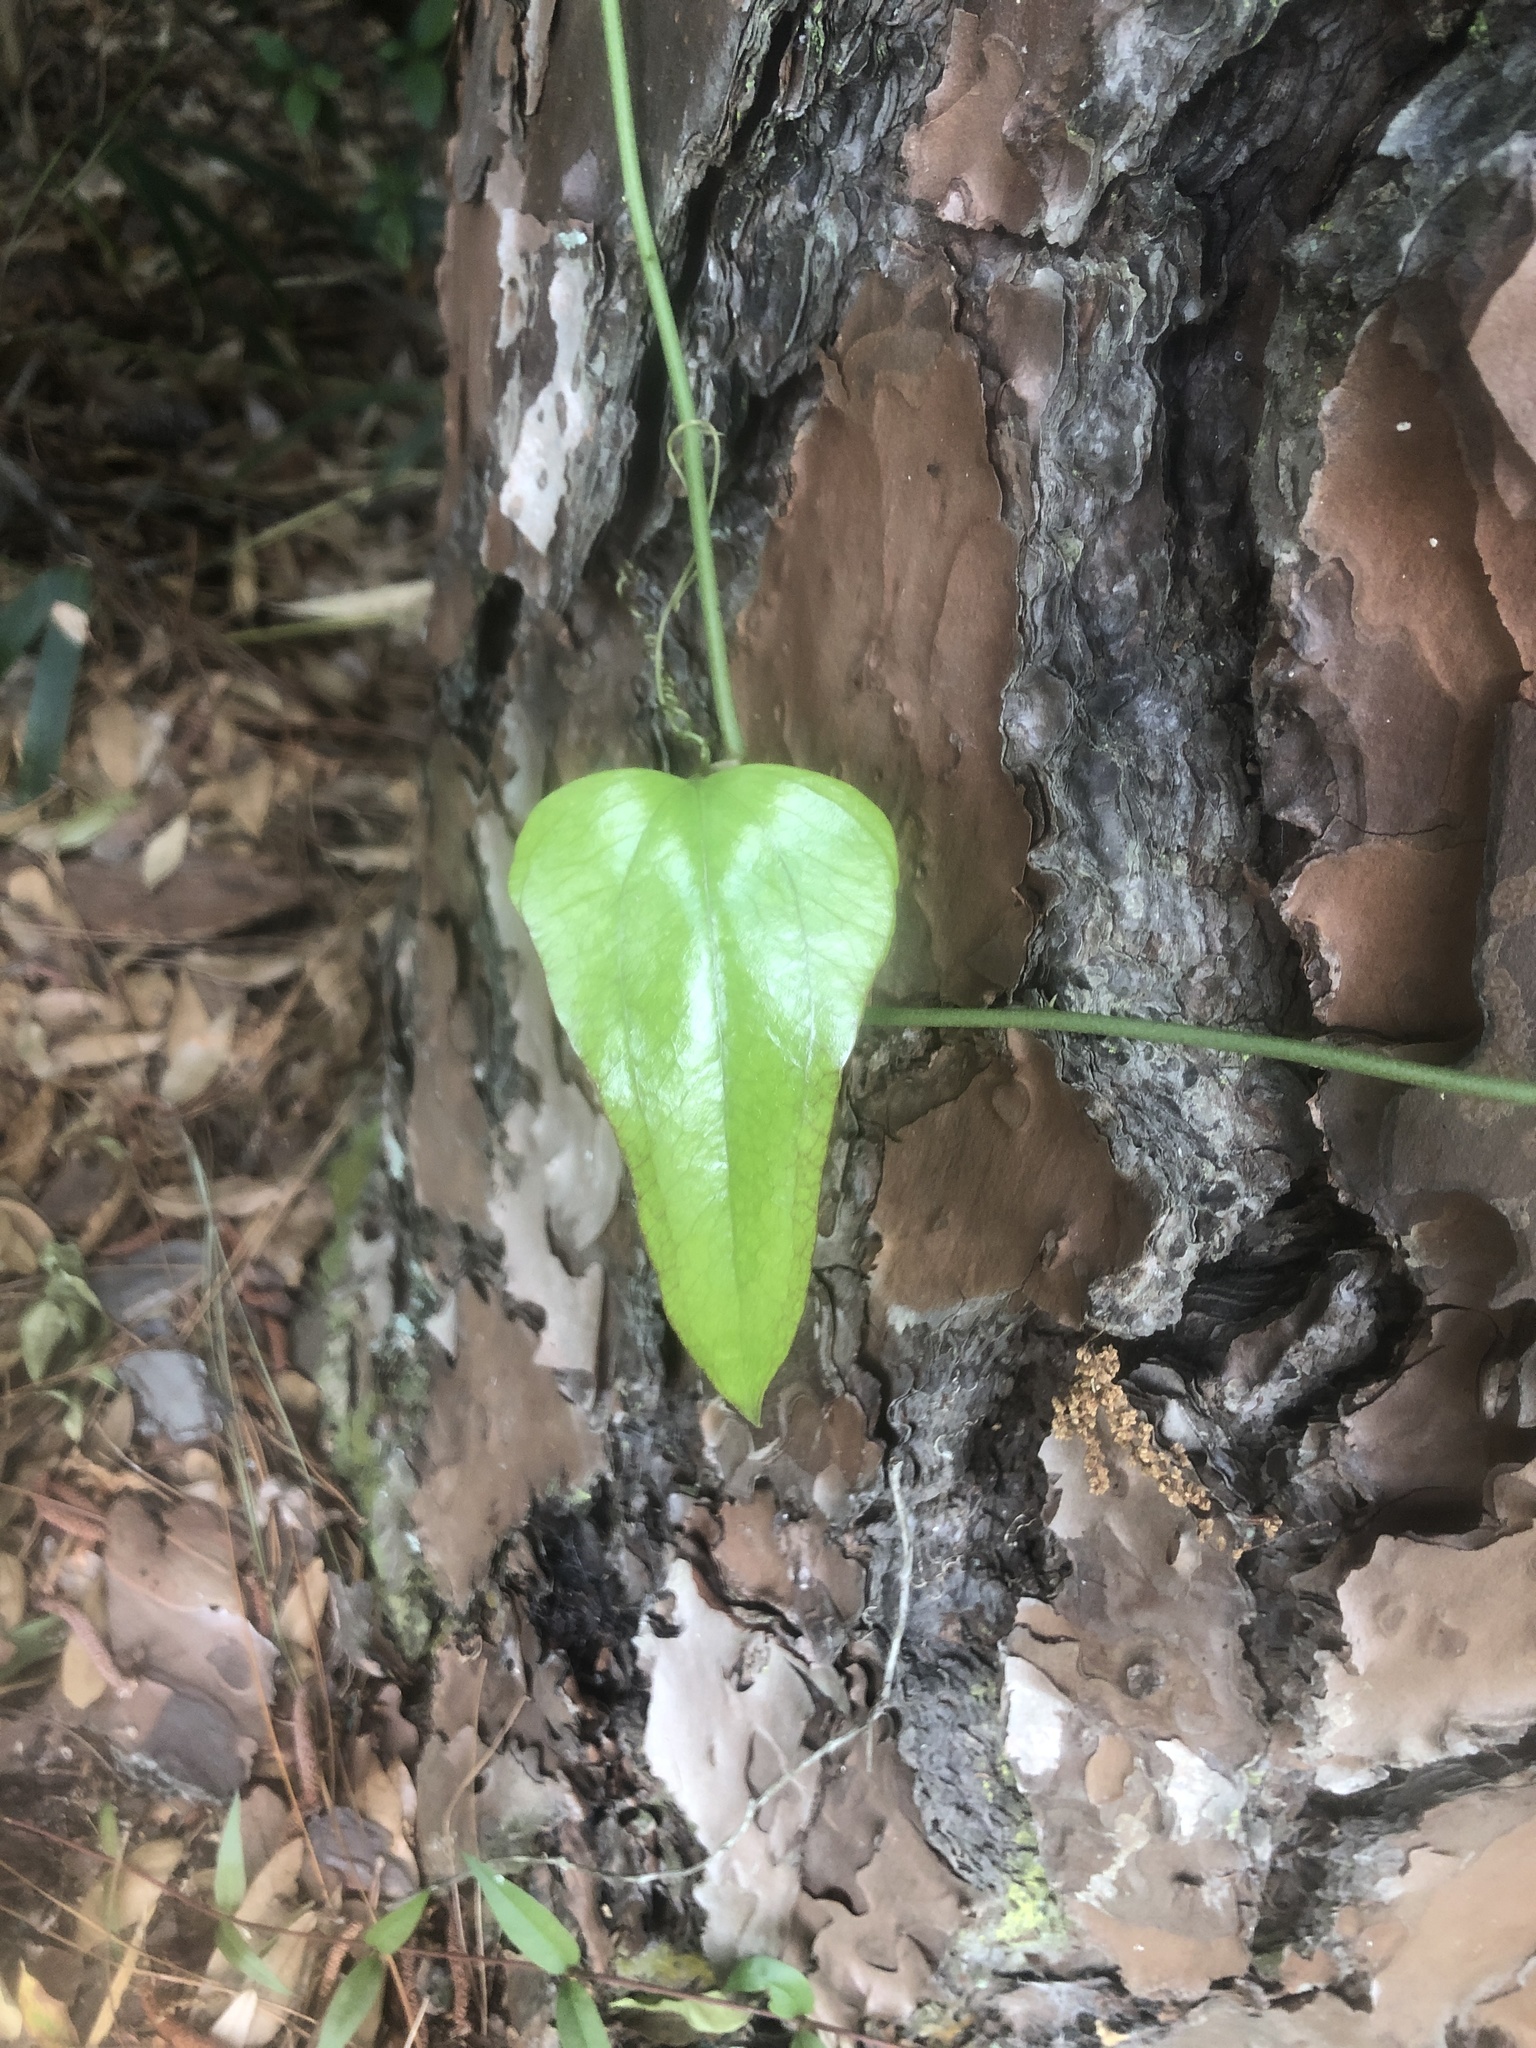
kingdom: Plantae
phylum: Tracheophyta
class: Liliopsida
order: Liliales
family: Smilacaceae
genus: Smilax
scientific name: Smilax auriculata
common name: Wild bamboo
